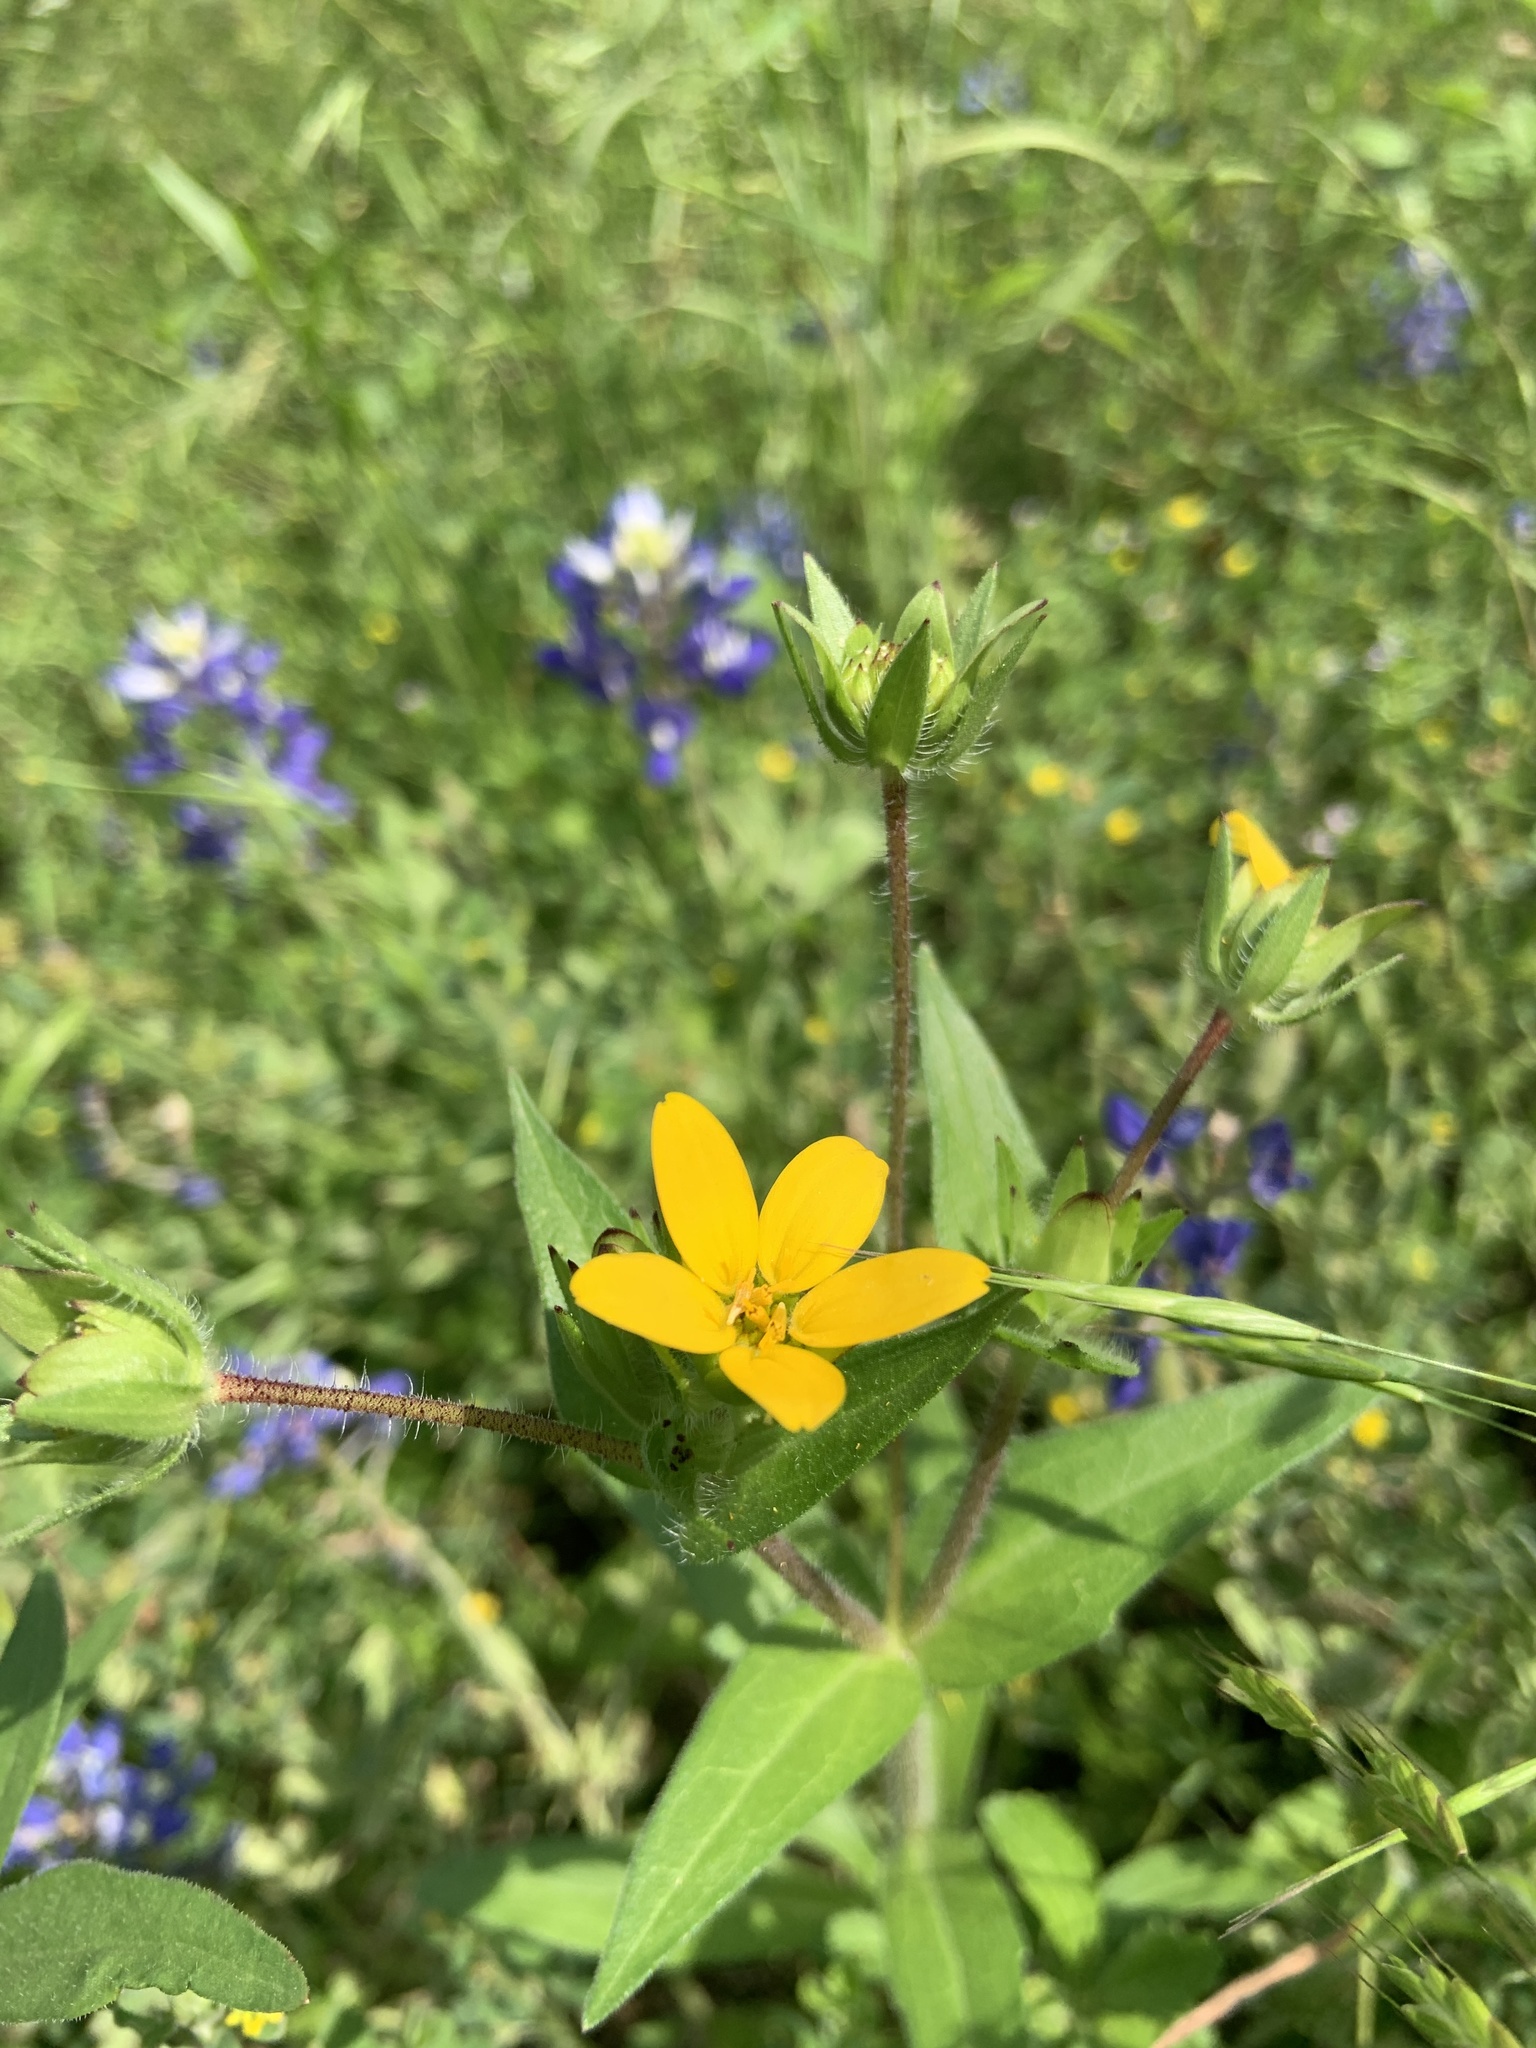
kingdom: Plantae
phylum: Tracheophyta
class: Magnoliopsida
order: Asterales
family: Asteraceae
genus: Lindheimera
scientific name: Lindheimera texana
